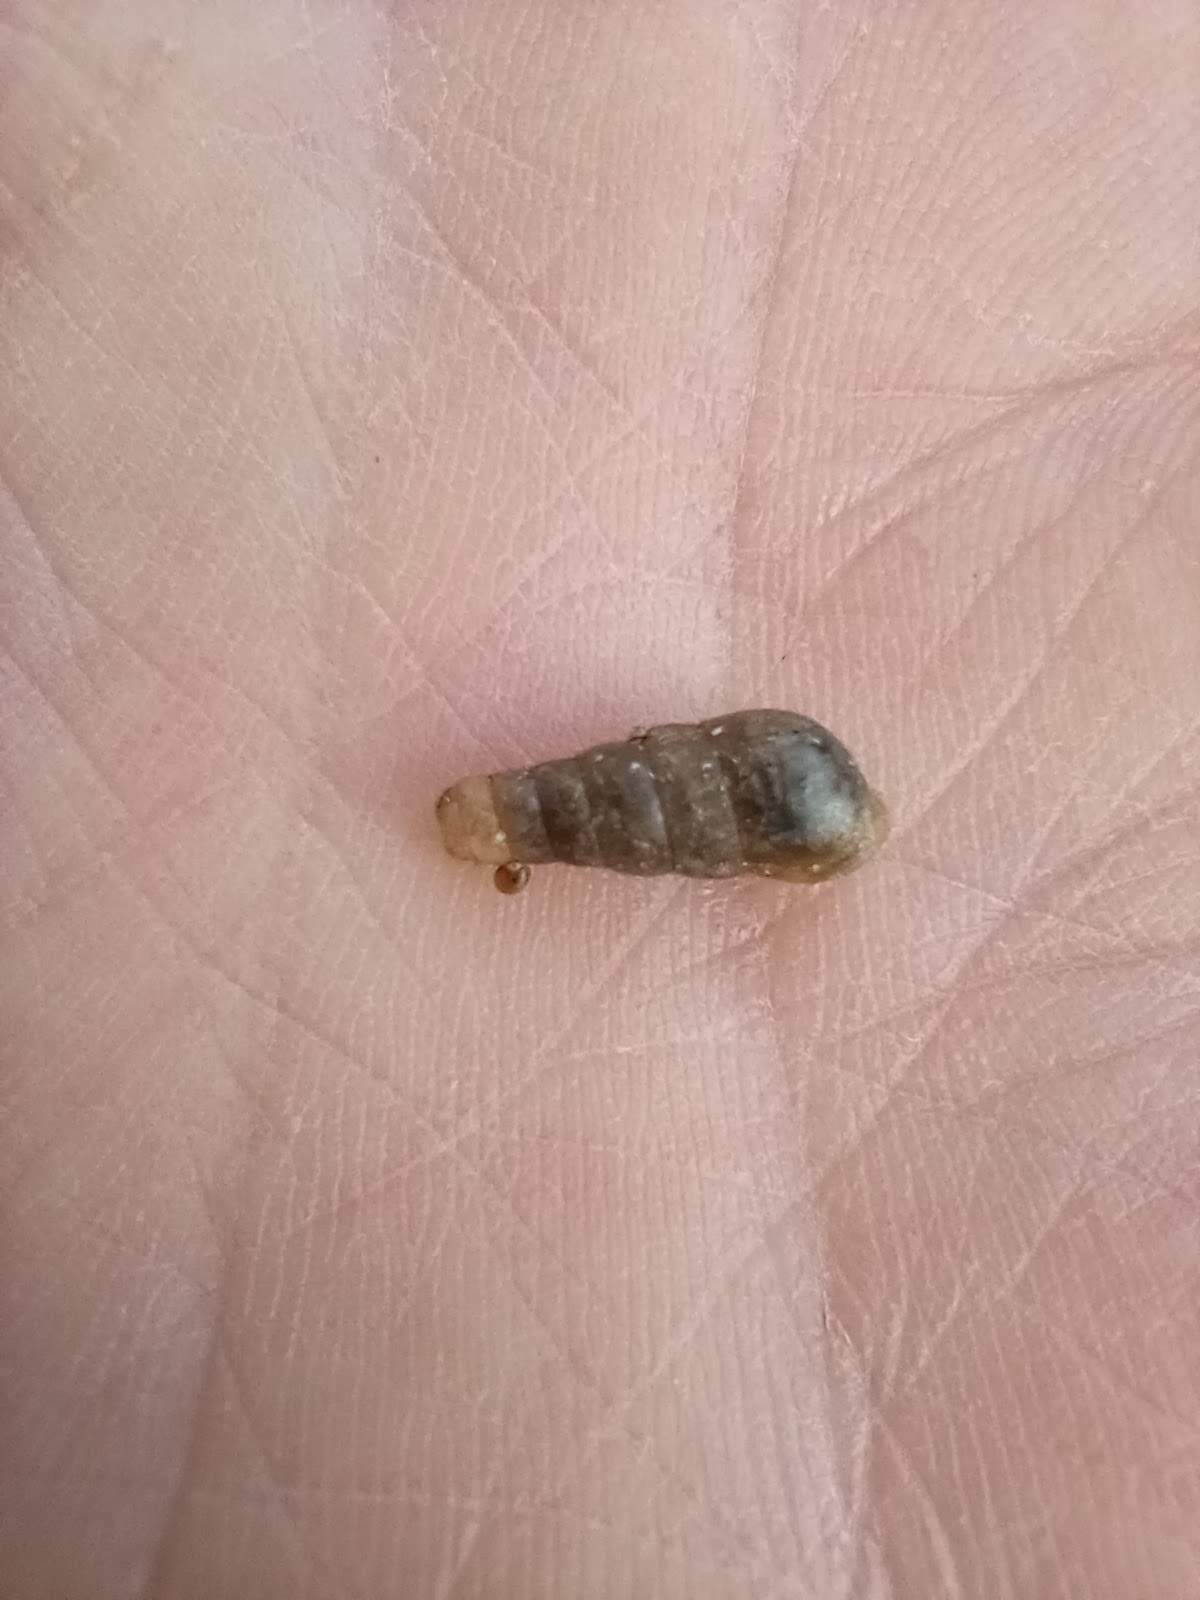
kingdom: Animalia
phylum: Mollusca
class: Gastropoda
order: Stylommatophora
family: Achatinidae
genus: Rumina
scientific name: Rumina decollata
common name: Decollate snail
